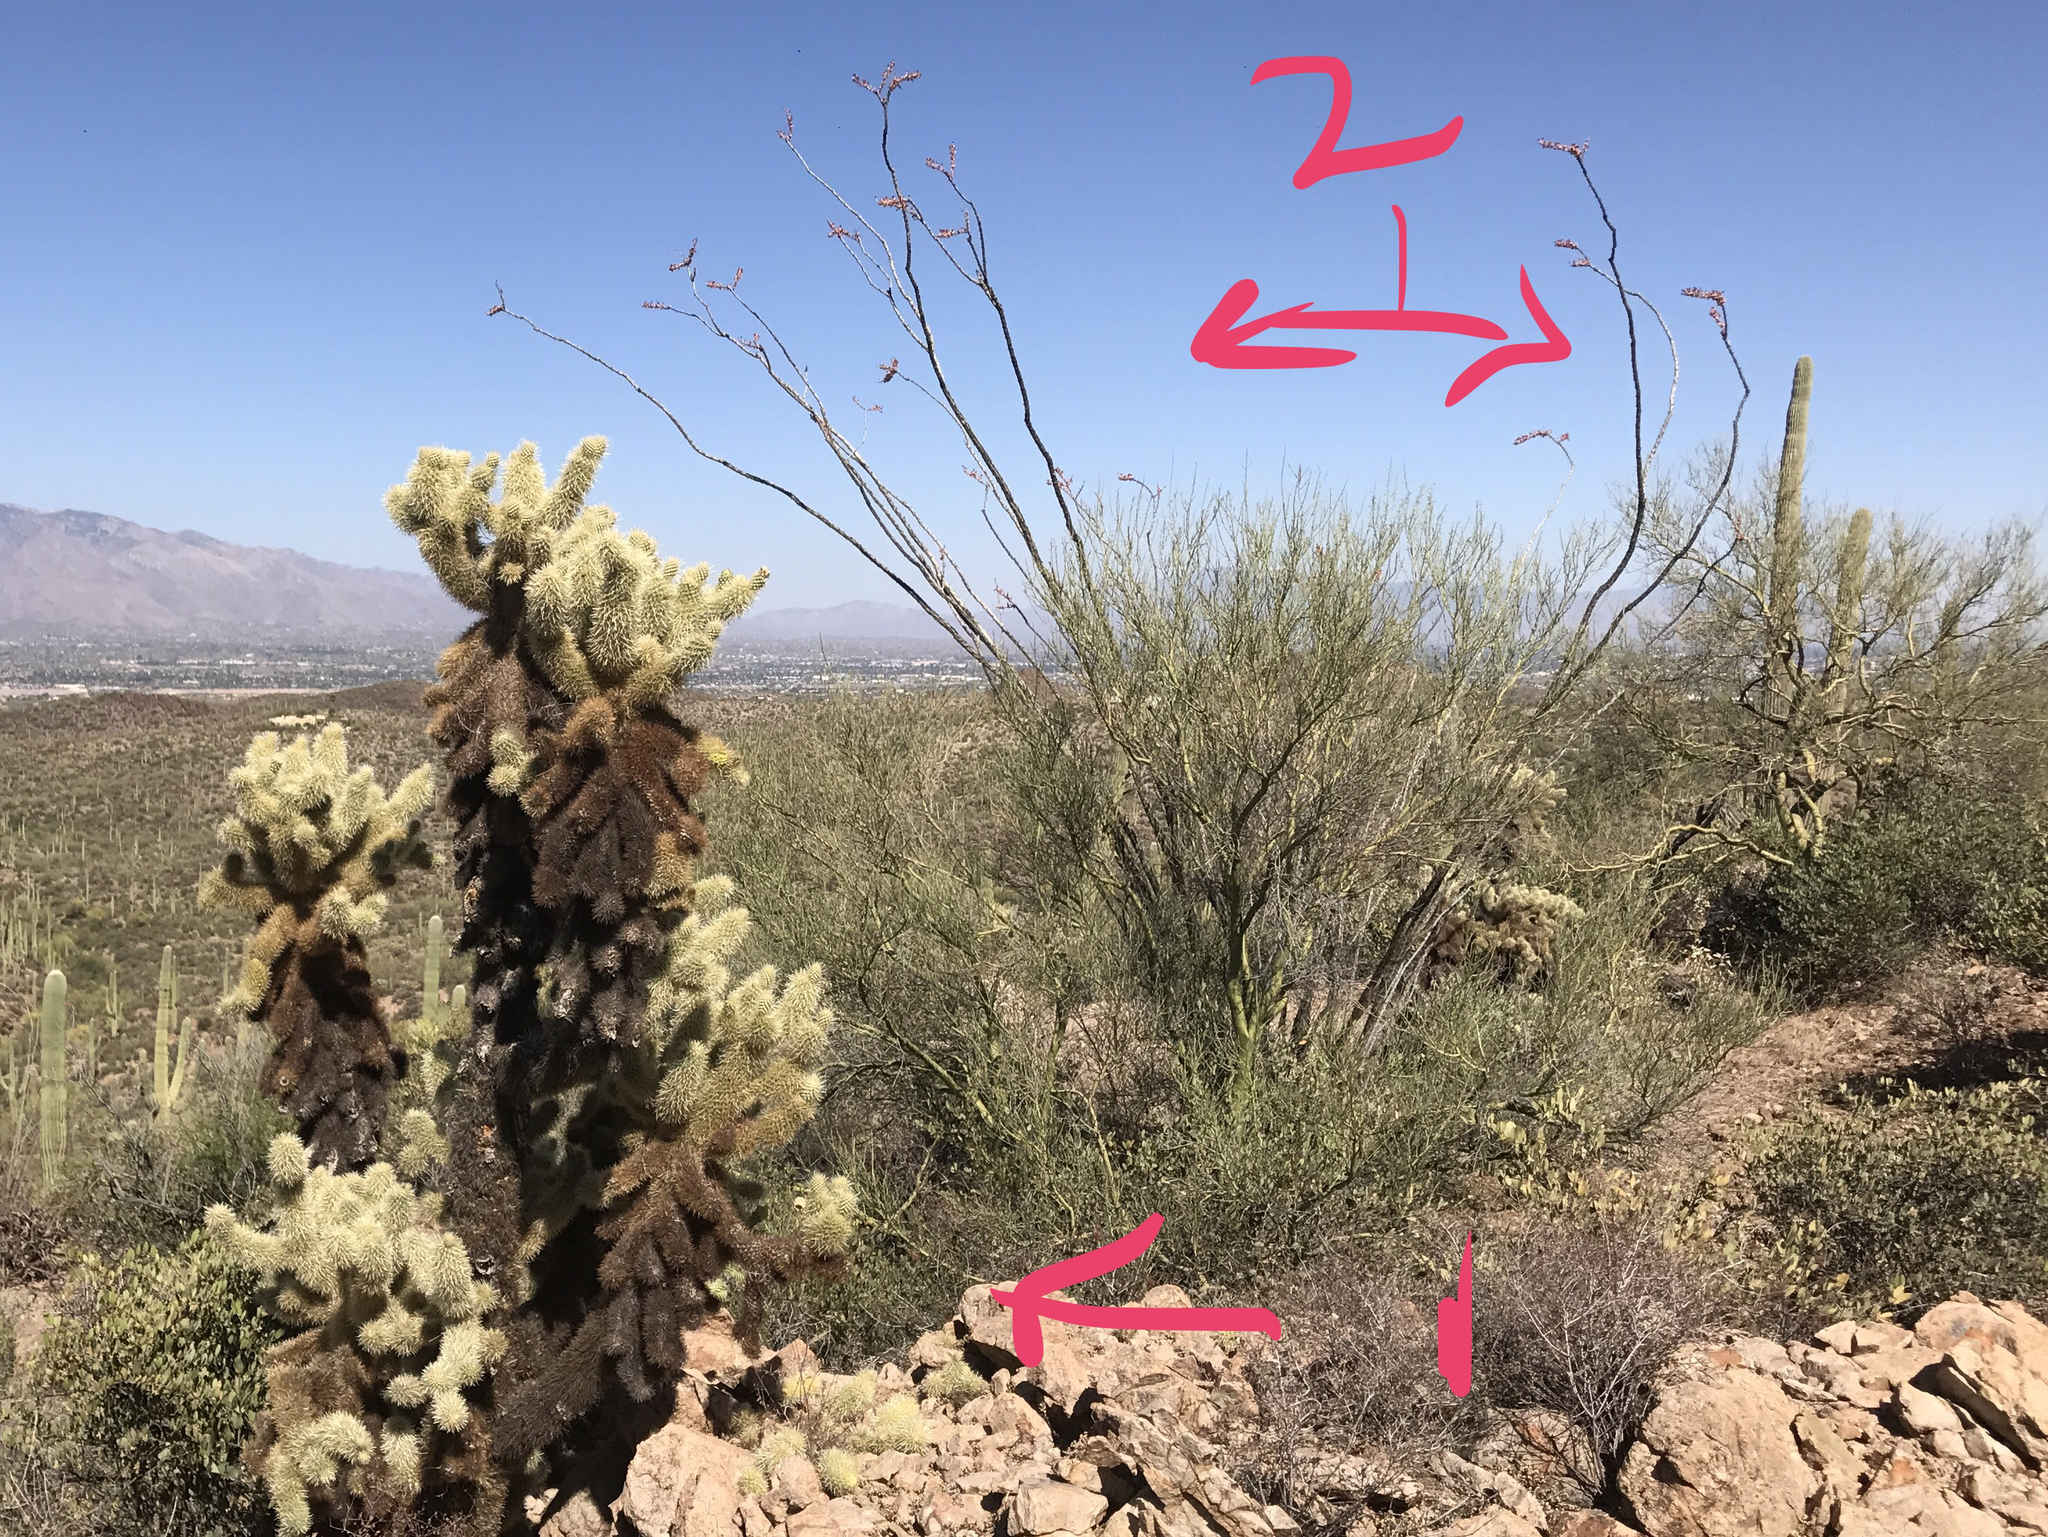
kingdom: Plantae
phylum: Tracheophyta
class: Magnoliopsida
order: Caryophyllales
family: Cactaceae
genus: Cylindropuntia
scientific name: Cylindropuntia fosbergii
